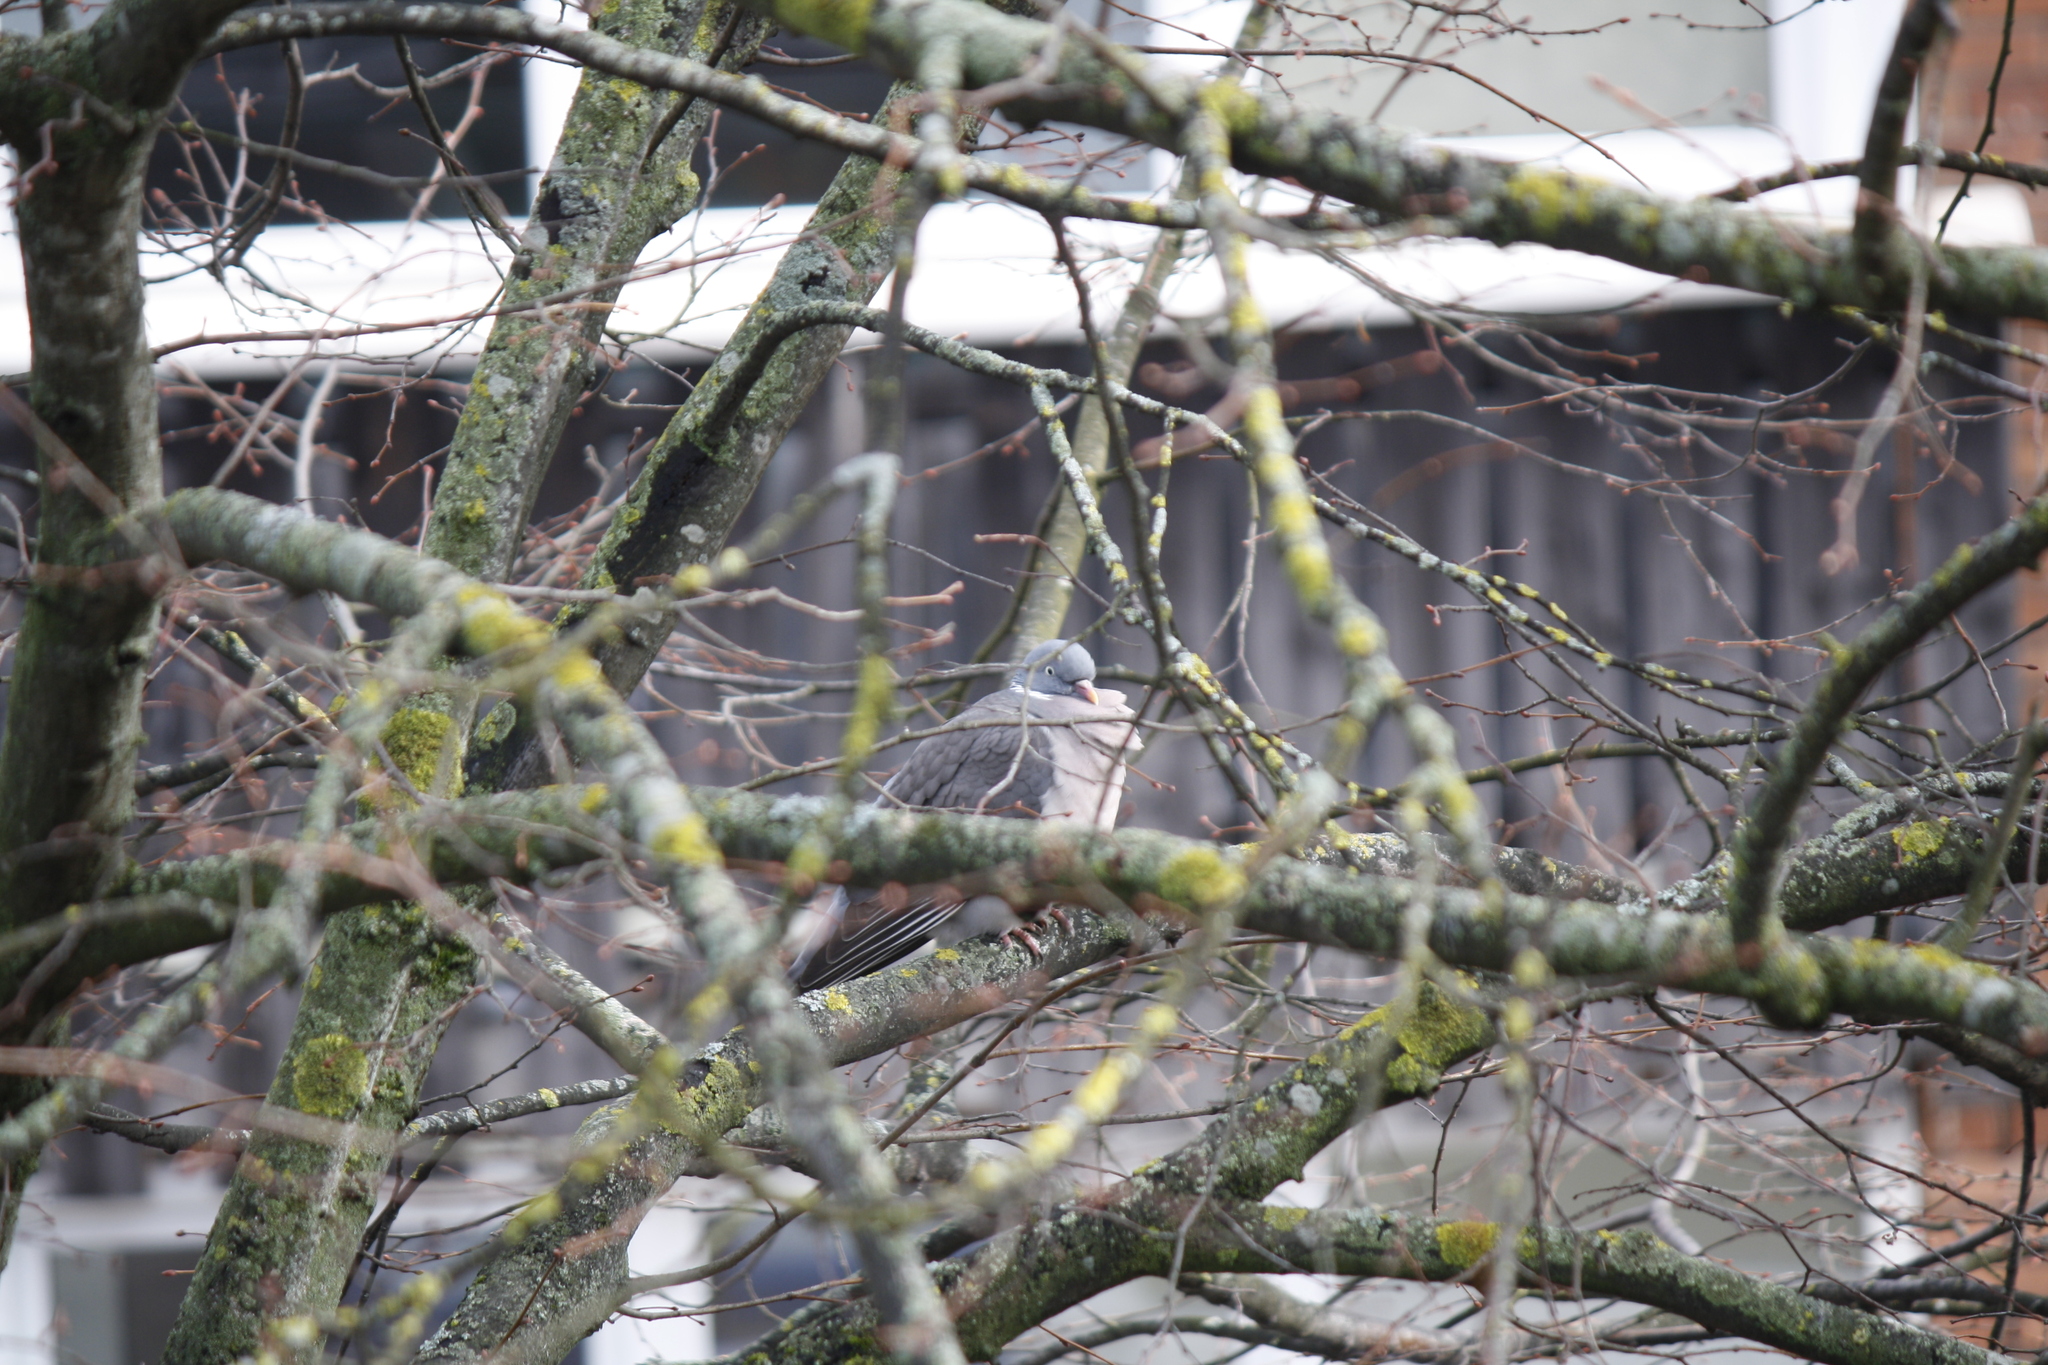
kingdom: Animalia
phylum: Chordata
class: Aves
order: Columbiformes
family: Columbidae
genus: Columba
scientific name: Columba palumbus
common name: Common wood pigeon
